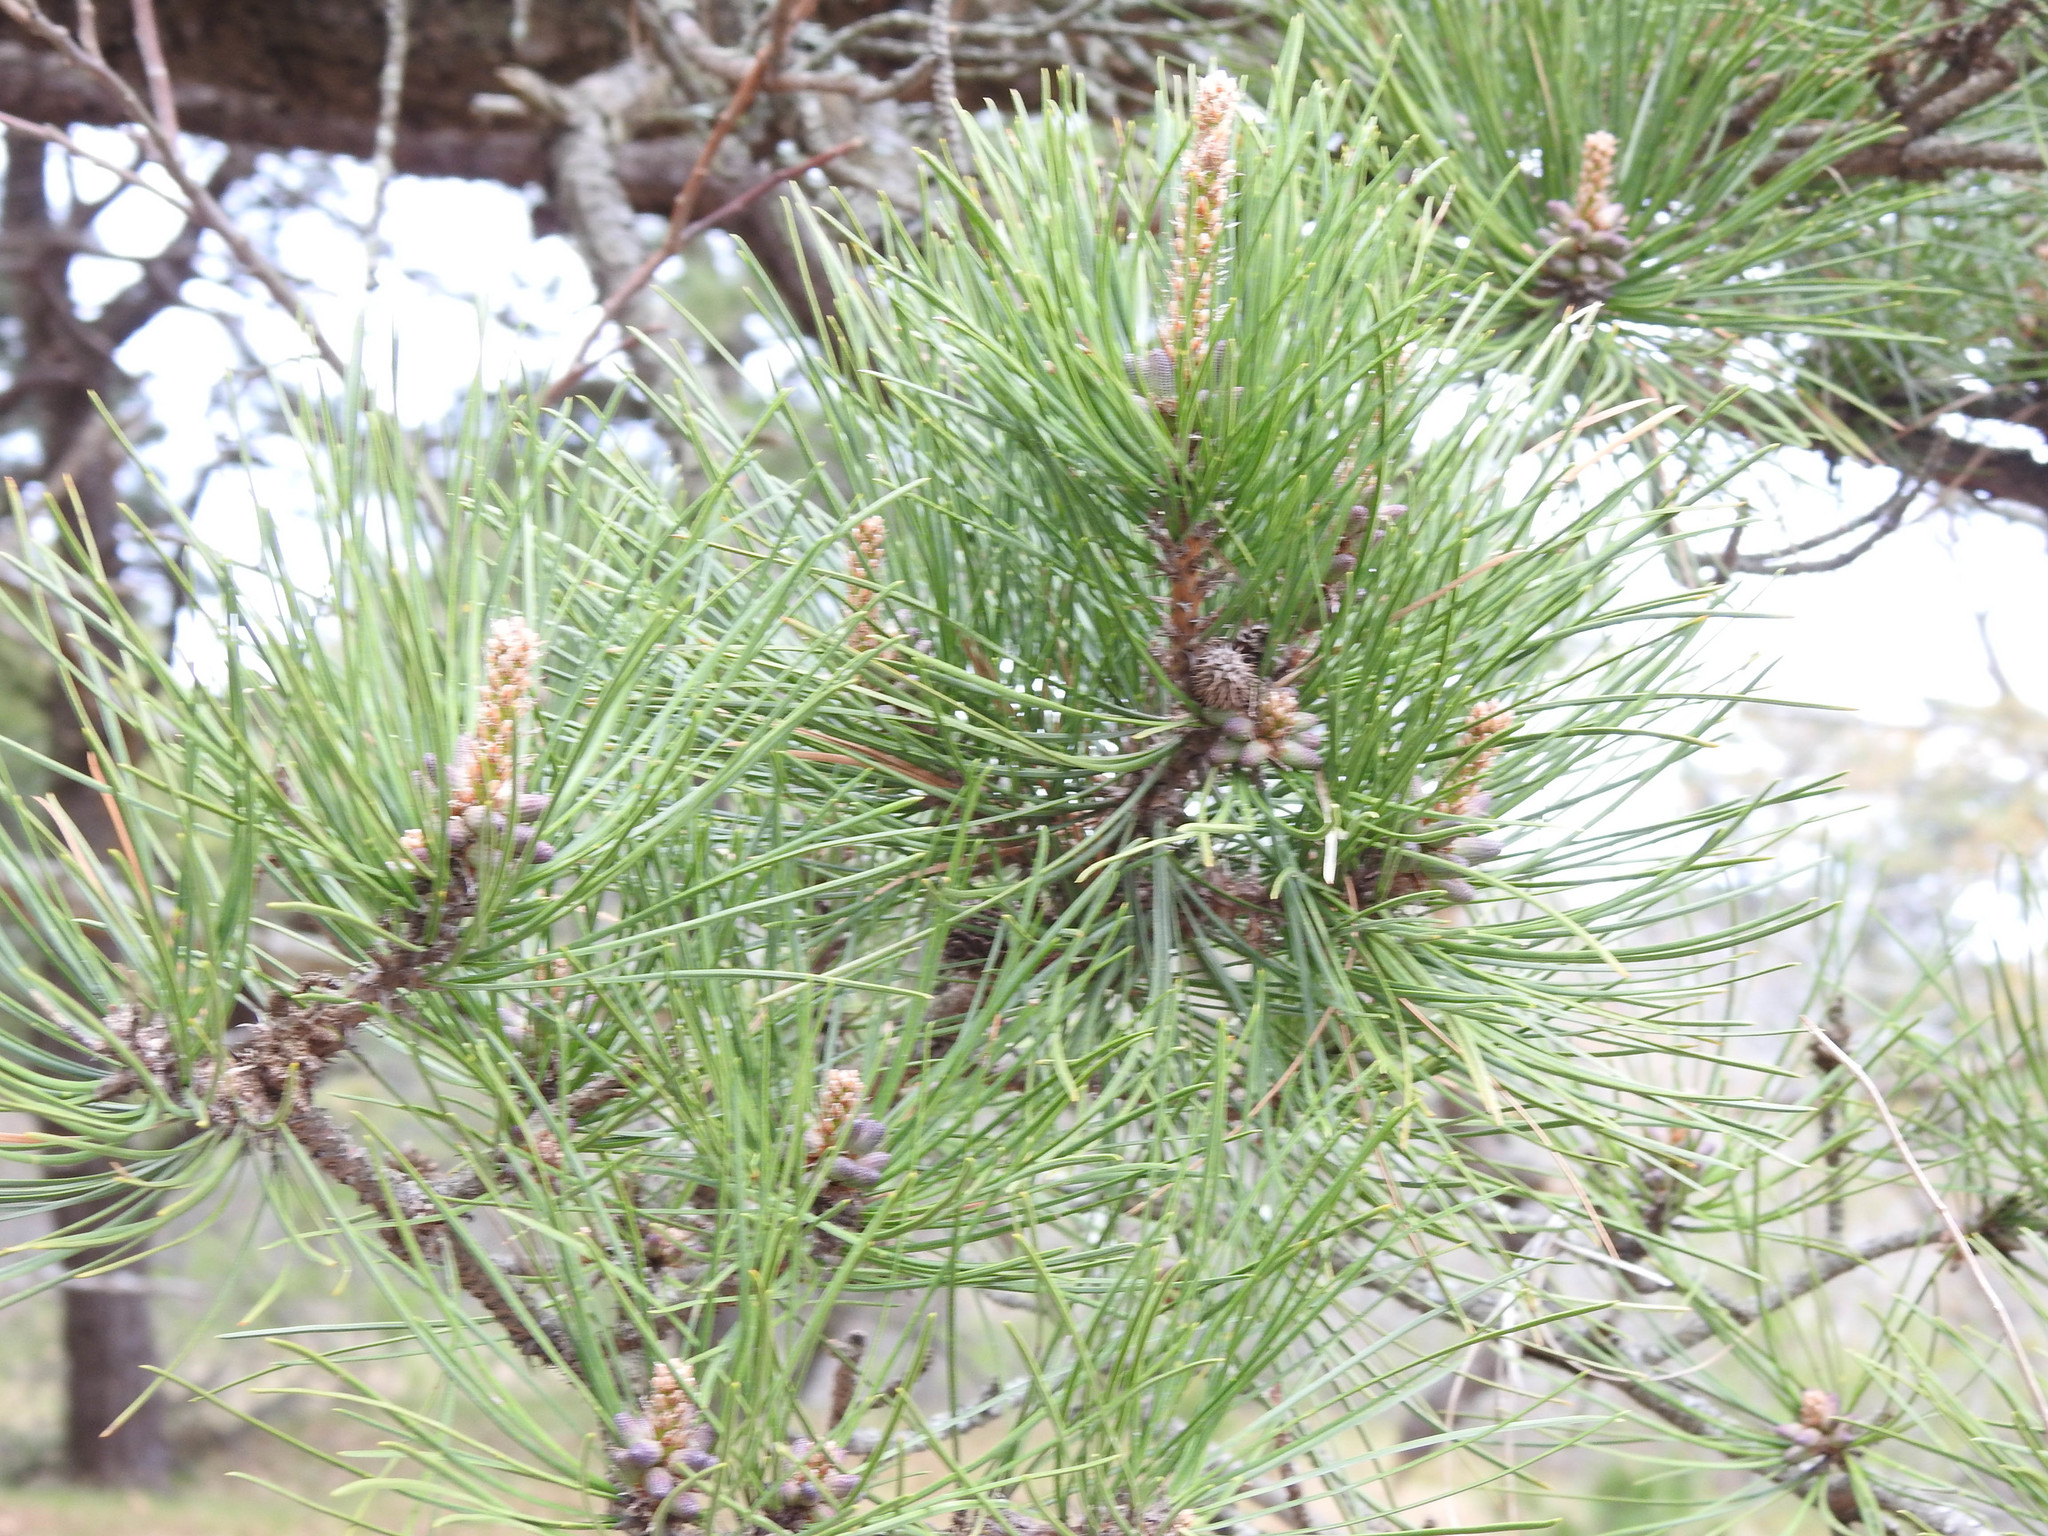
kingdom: Plantae
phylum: Tracheophyta
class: Pinopsida
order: Pinales
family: Pinaceae
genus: Pinus
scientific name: Pinus rigida
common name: Pitch pine
